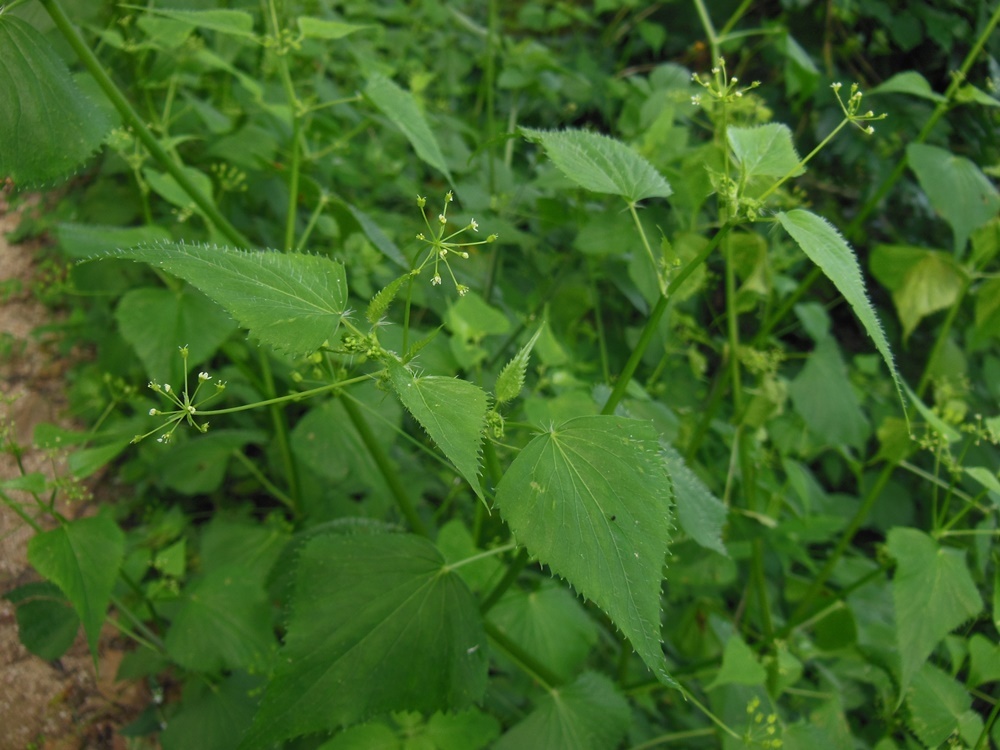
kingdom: Plantae
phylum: Tracheophyta
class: Magnoliopsida
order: Apiales
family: Apiaceae
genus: Spananthe
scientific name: Spananthe paniculata
